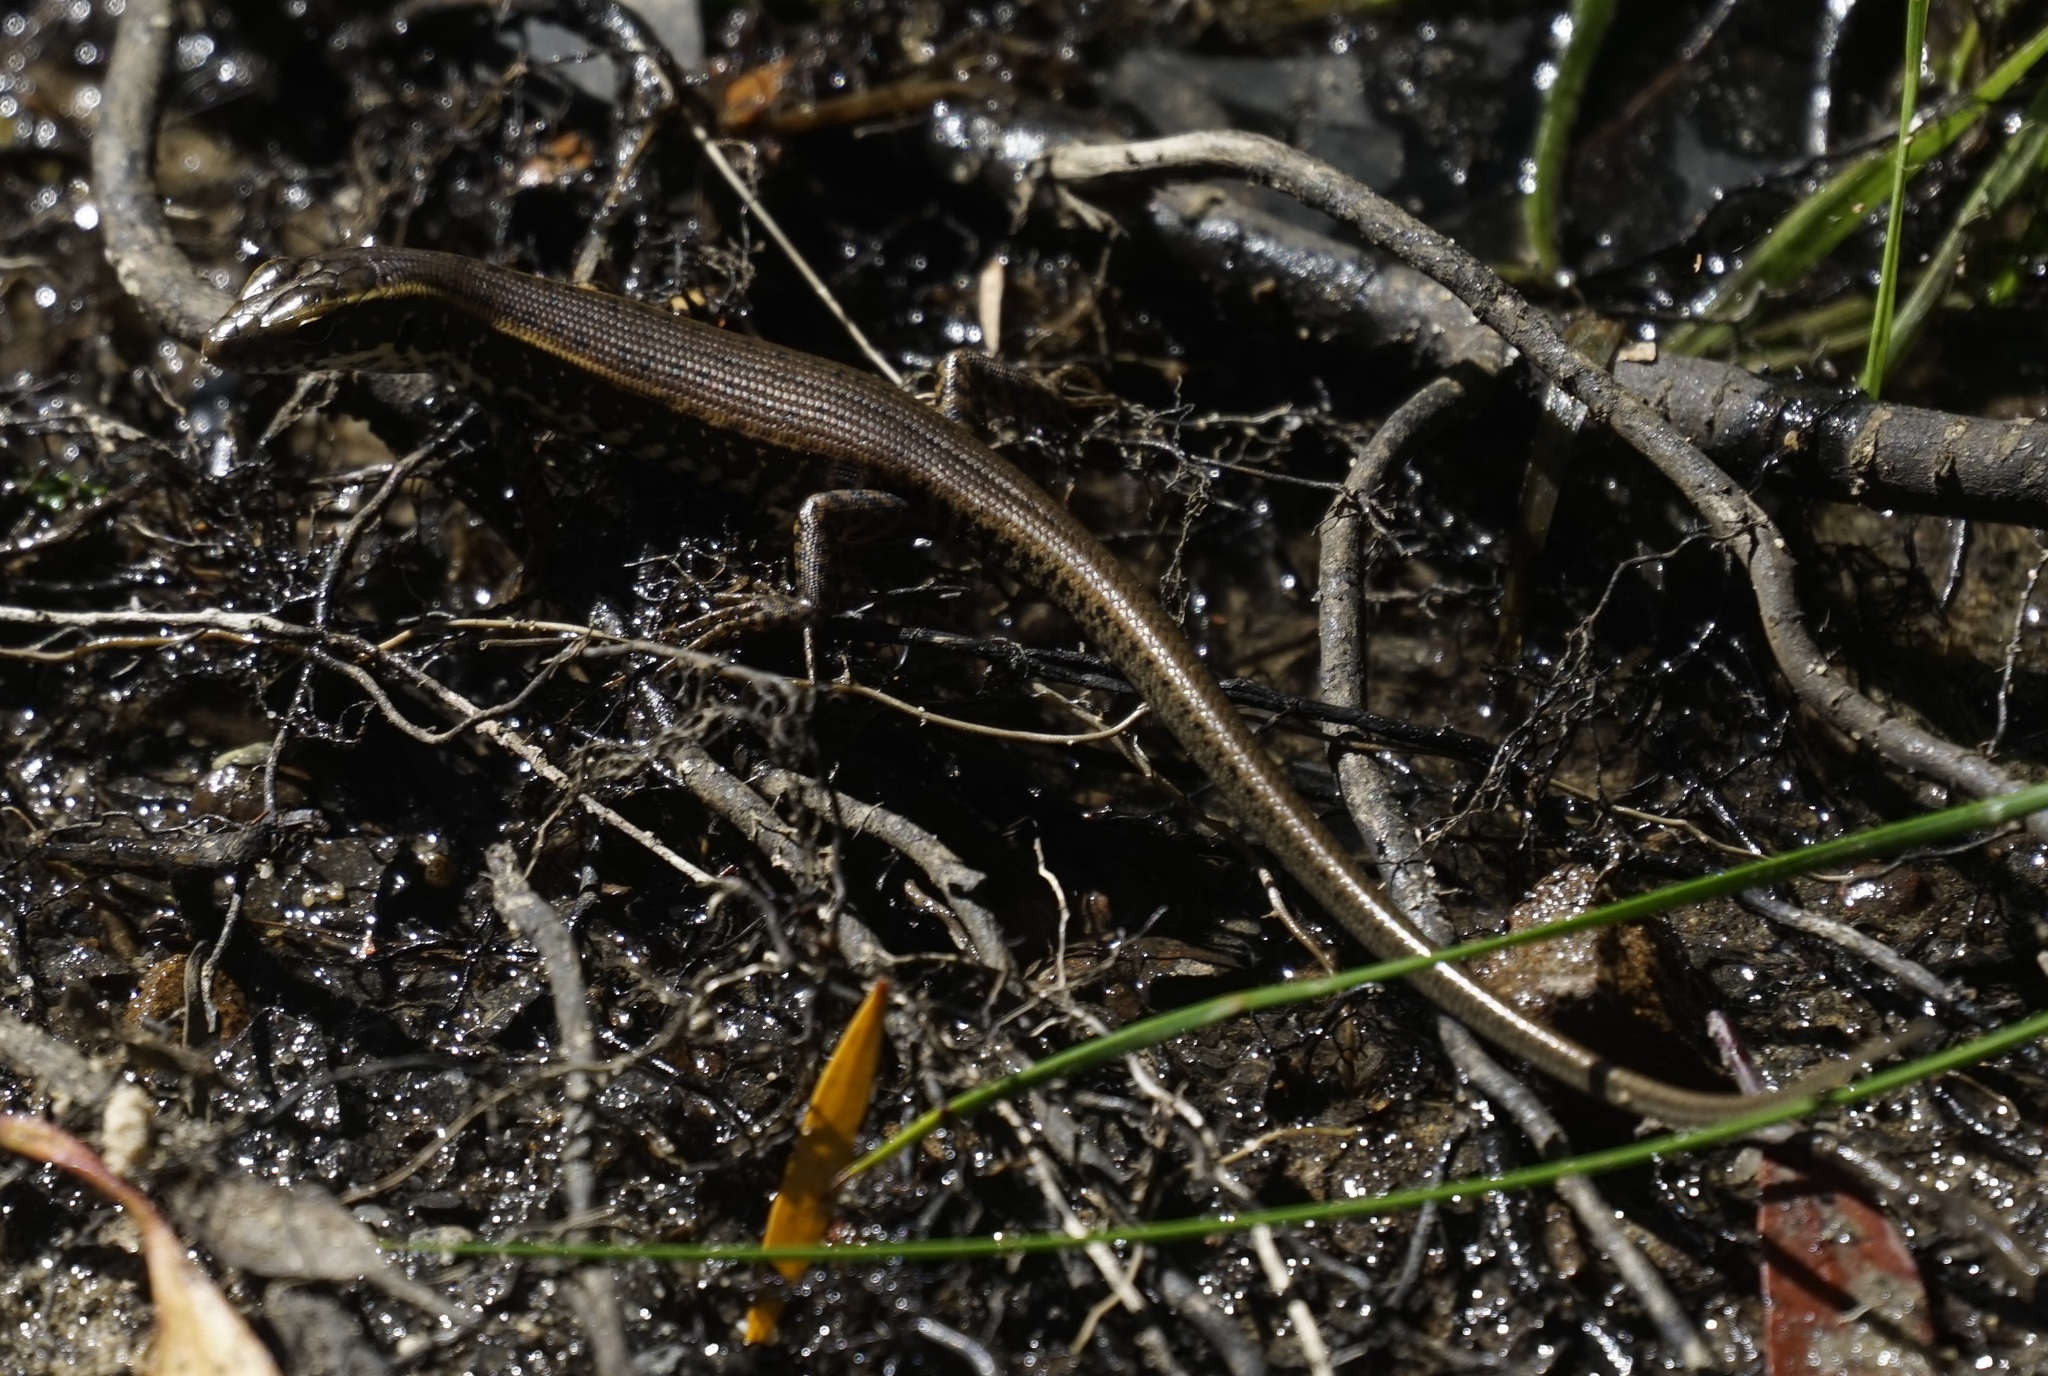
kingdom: Animalia
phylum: Chordata
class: Squamata
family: Scincidae
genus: Eulamprus
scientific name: Eulamprus quoyii
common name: Eastern water skink
